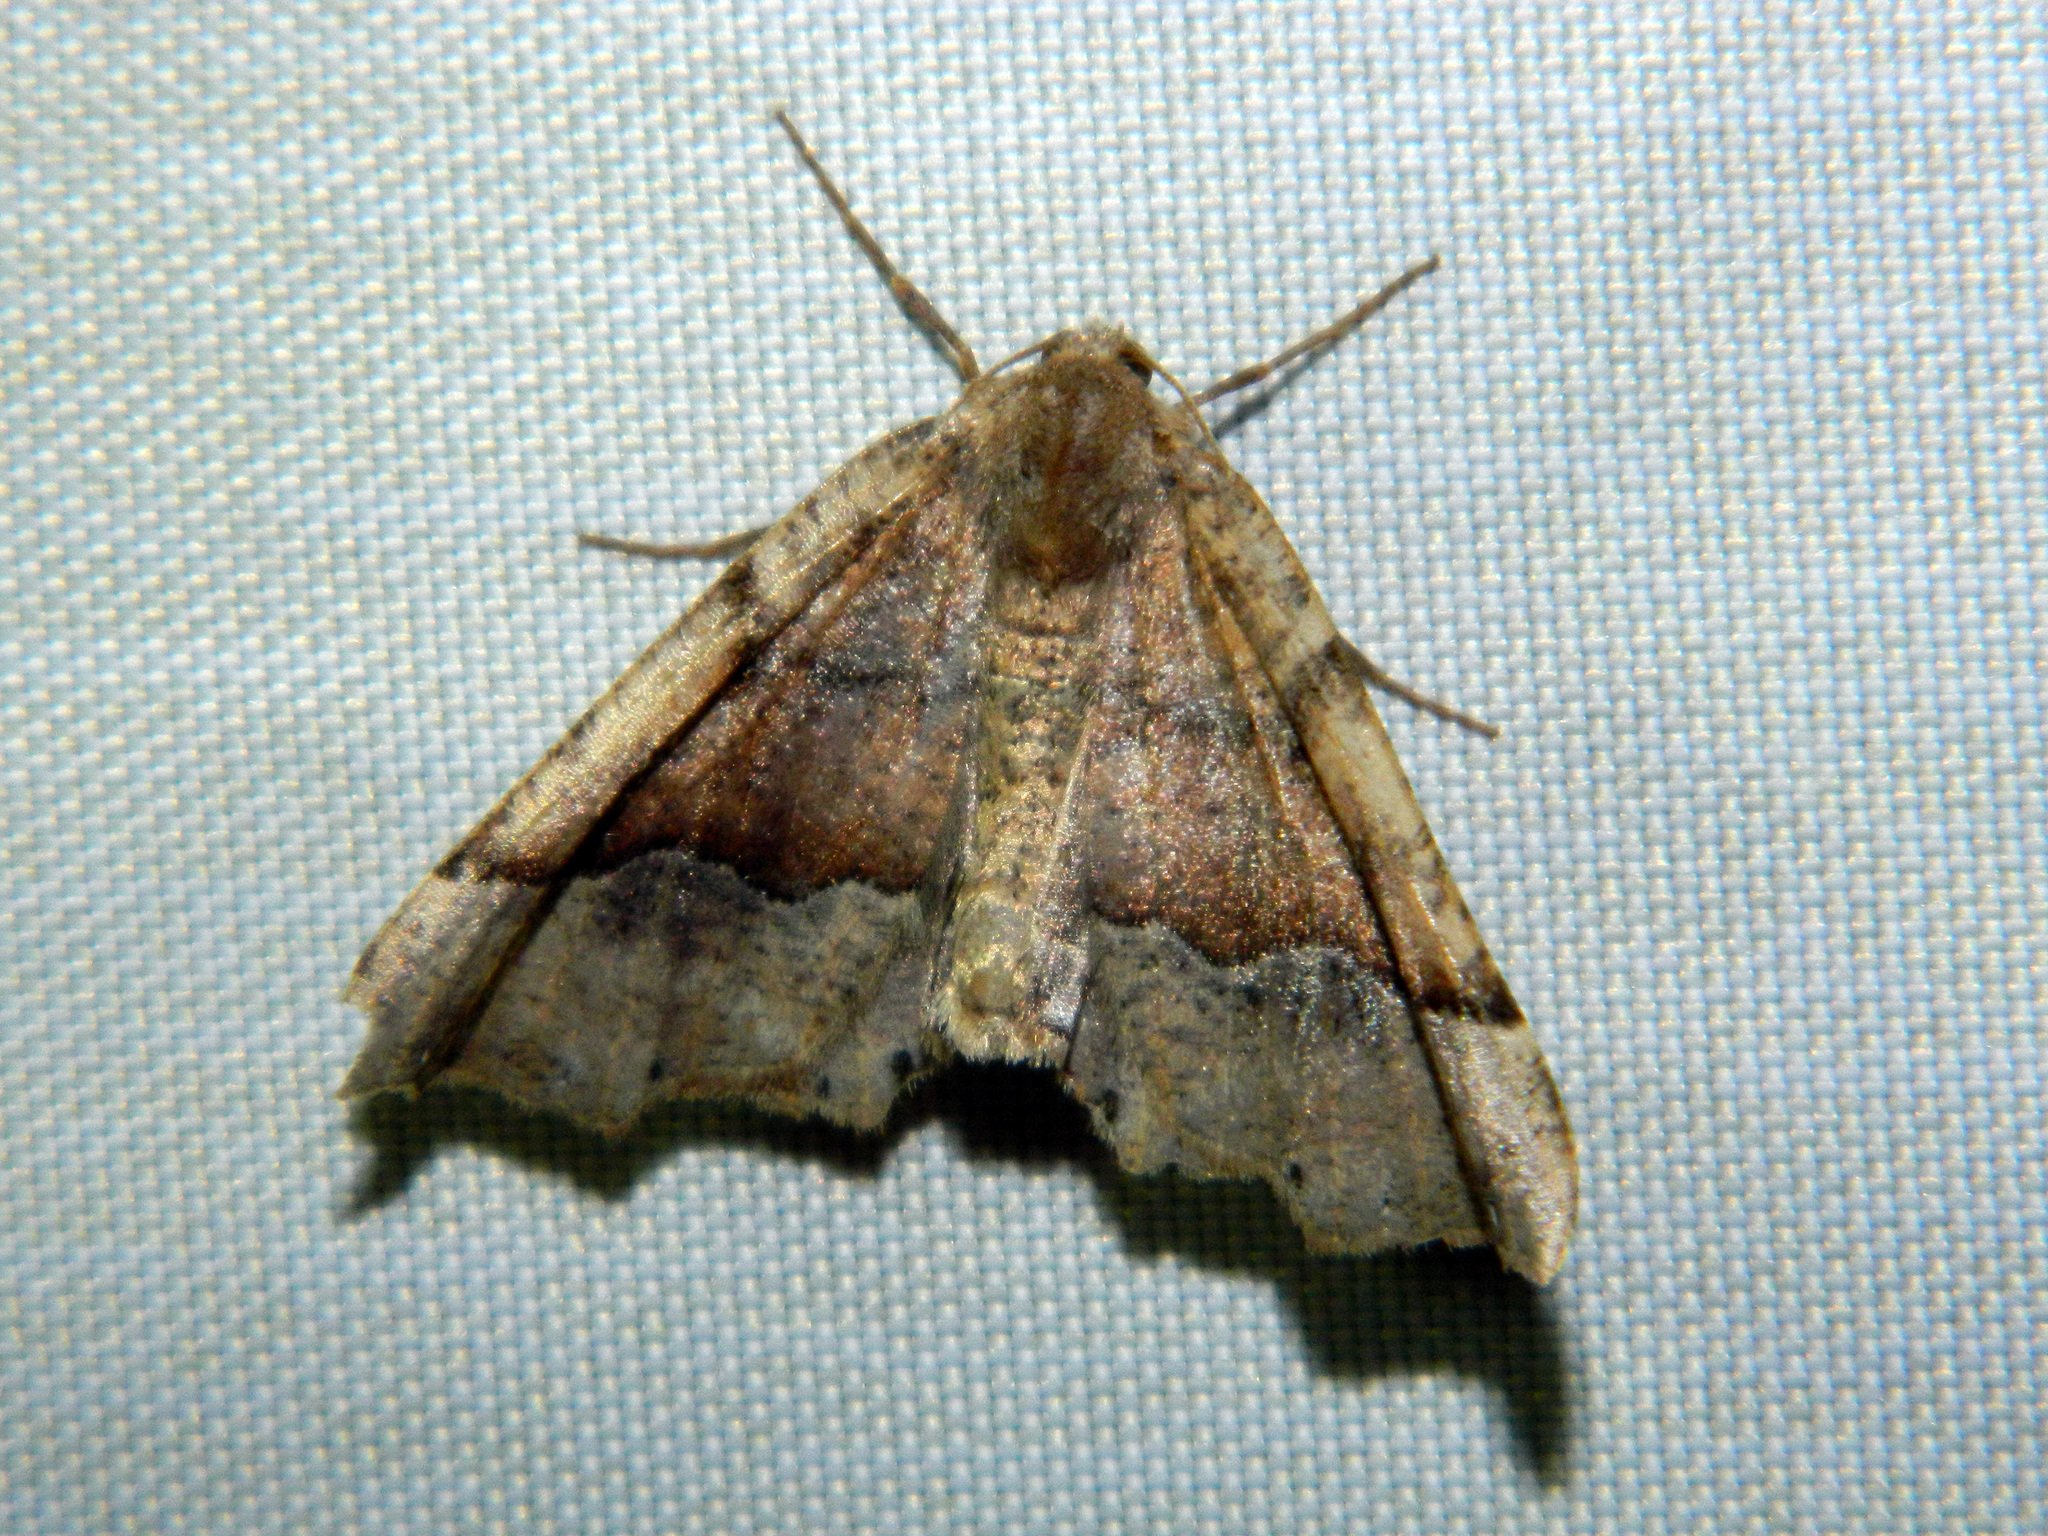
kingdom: Animalia
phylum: Arthropoda
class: Insecta
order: Lepidoptera
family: Geometridae
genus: Pero
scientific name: Pero morrisonaria
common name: Morrison's pero
